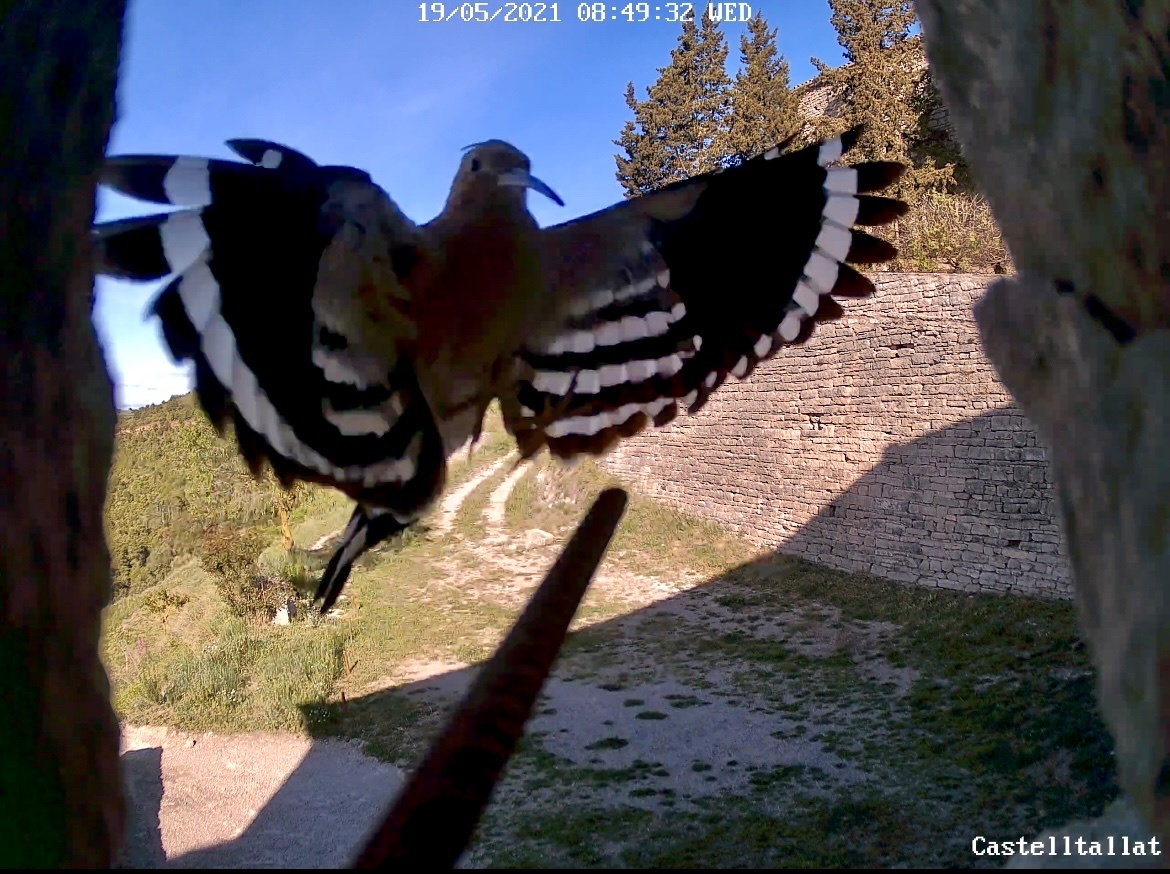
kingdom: Animalia
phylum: Chordata
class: Aves
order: Bucerotiformes
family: Upupidae
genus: Upupa
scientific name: Upupa epops
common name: Eurasian hoopoe
